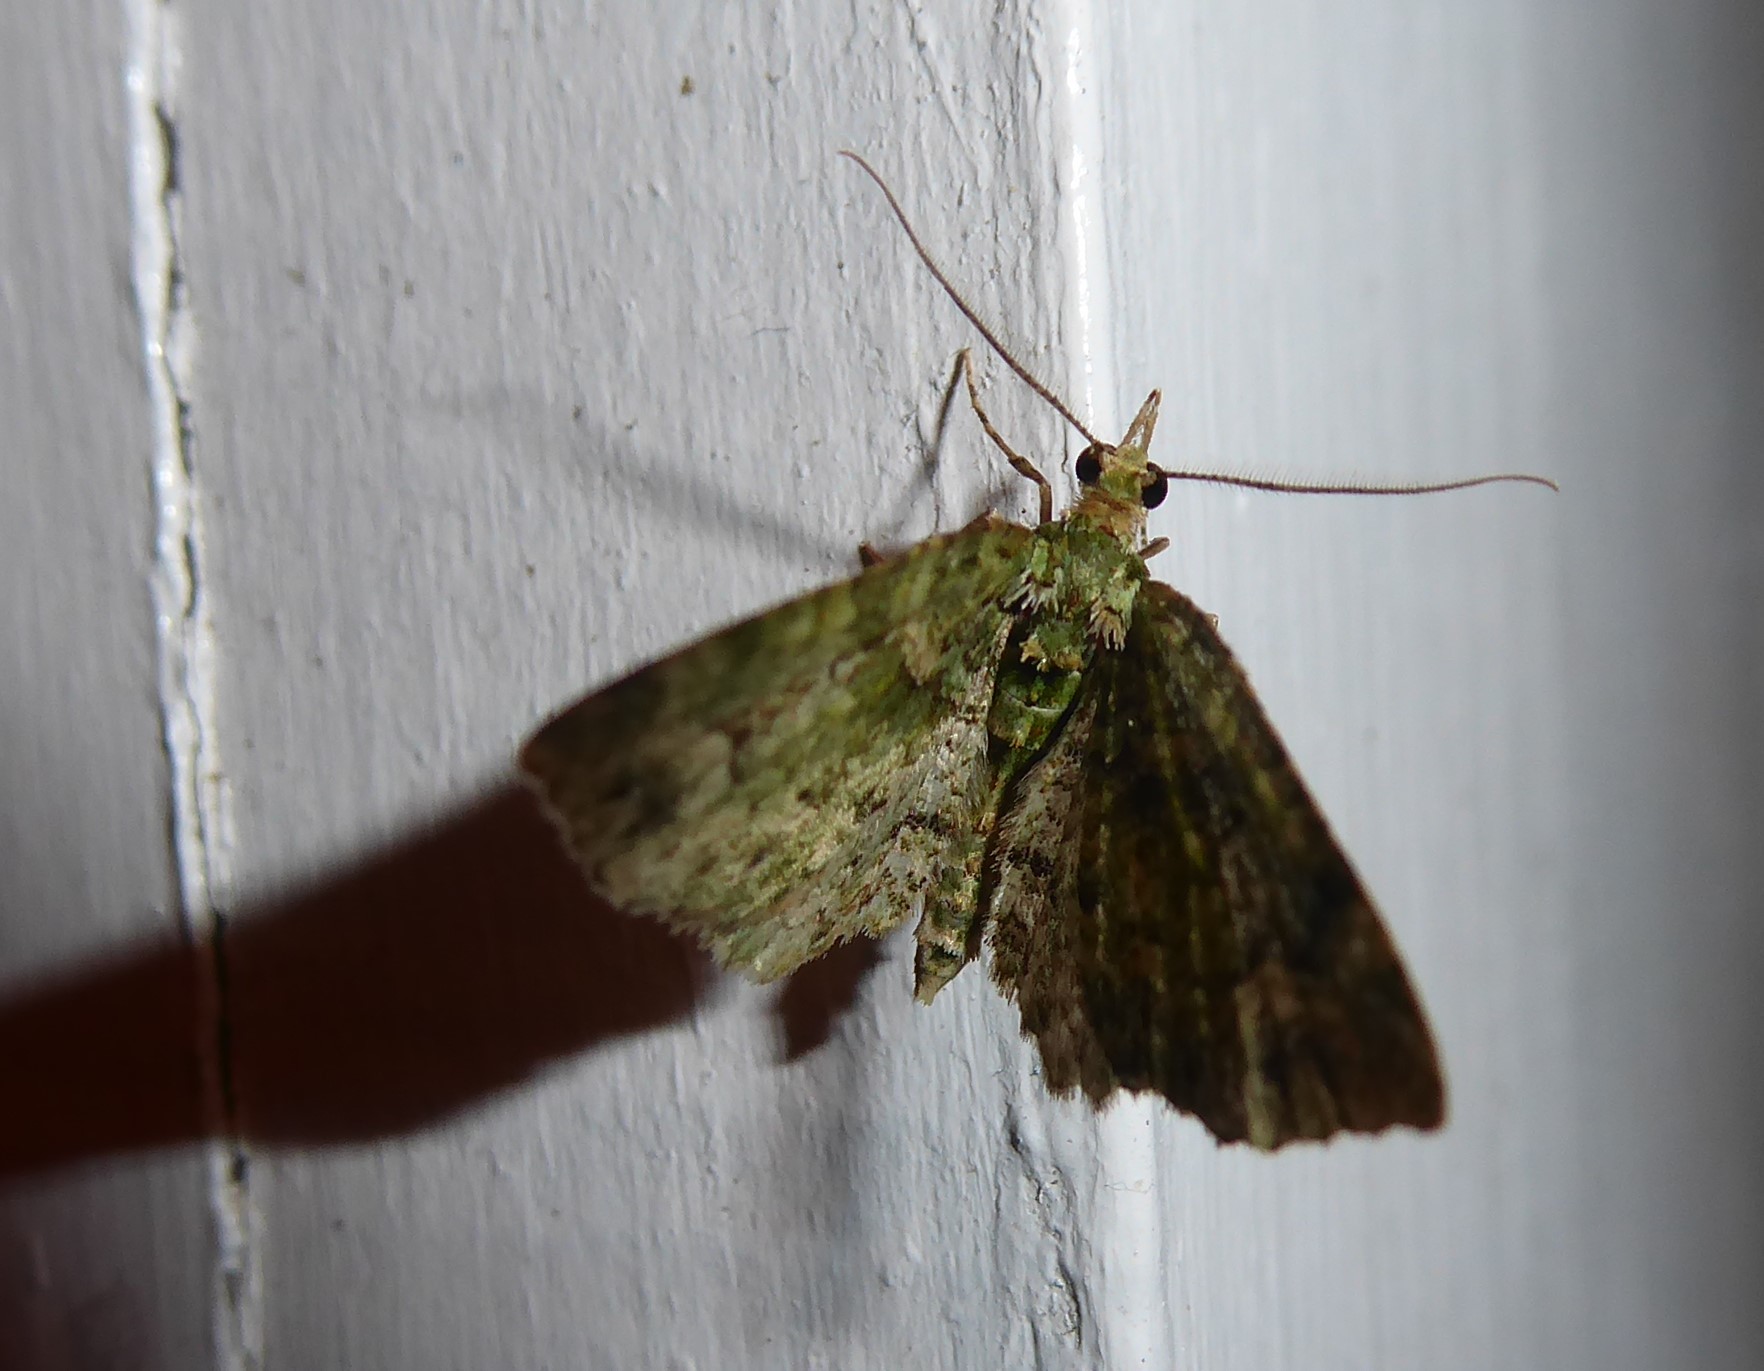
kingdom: Animalia
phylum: Arthropoda
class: Insecta
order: Lepidoptera
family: Geometridae
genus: Pasiphila
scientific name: Pasiphila muscosata
